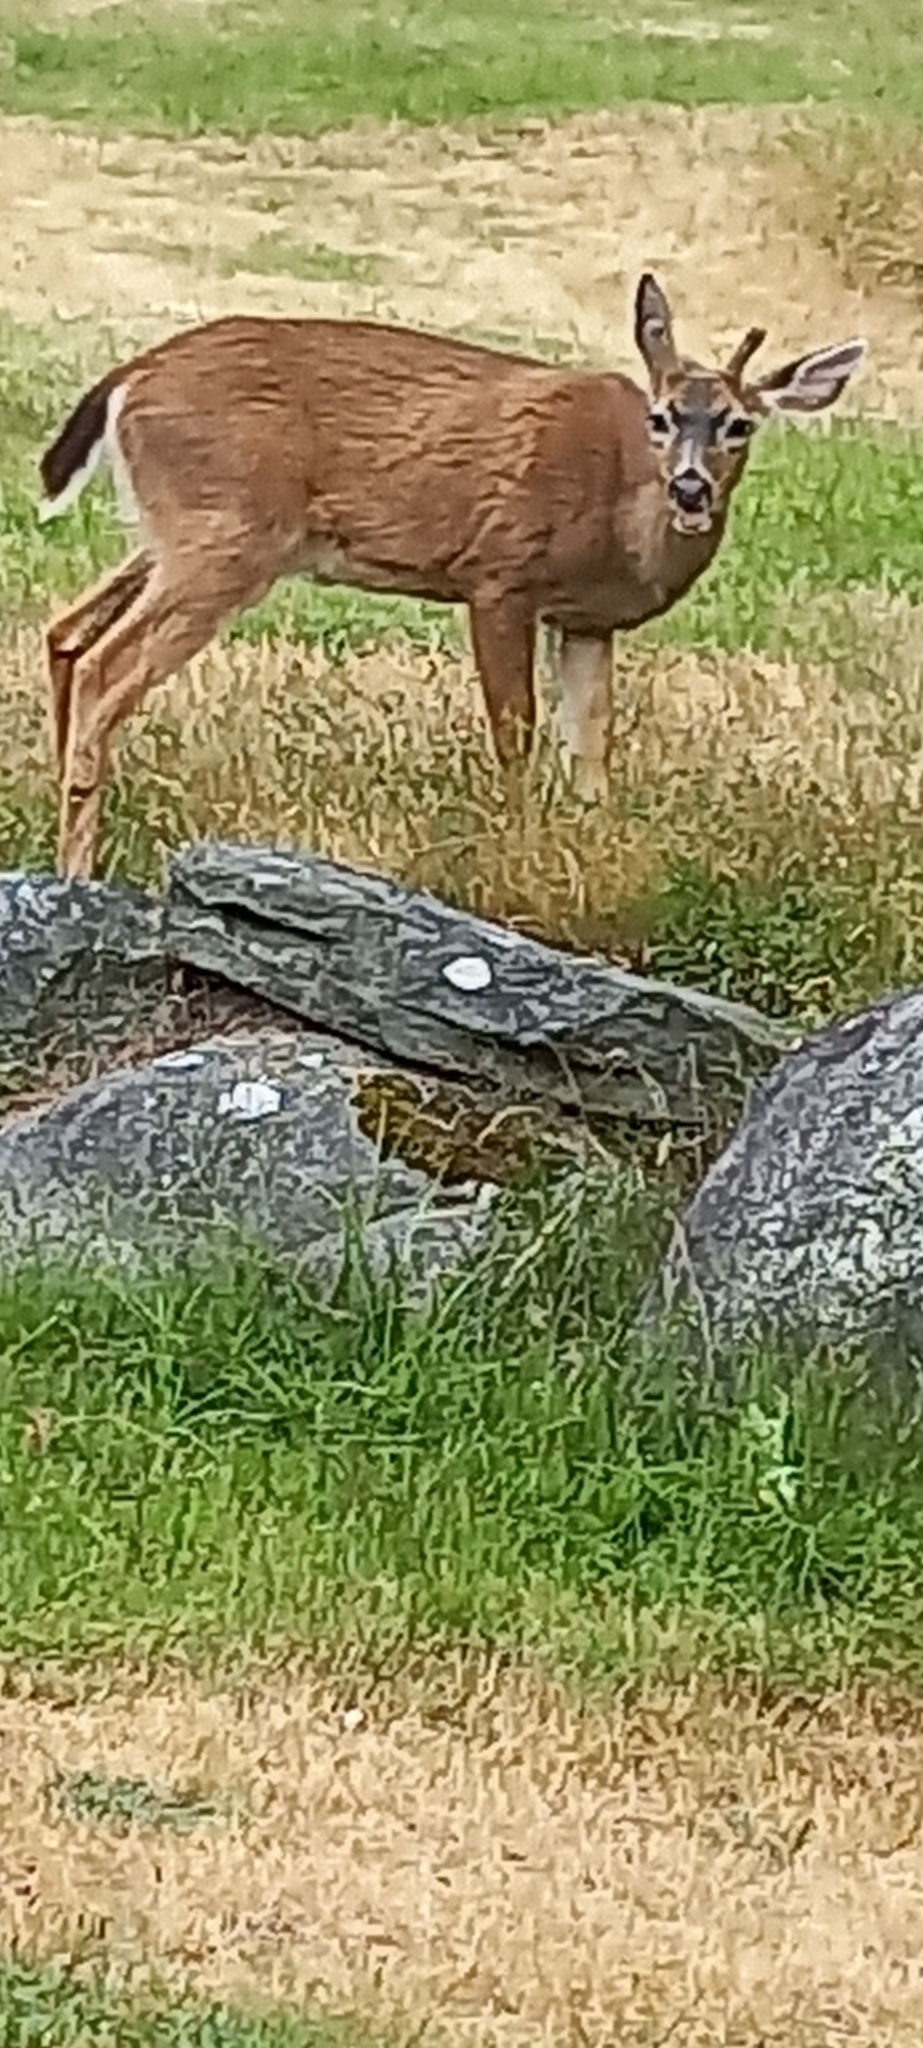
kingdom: Animalia
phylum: Chordata
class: Mammalia
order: Artiodactyla
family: Cervidae
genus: Odocoileus
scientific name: Odocoileus hemionus
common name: Mule deer
